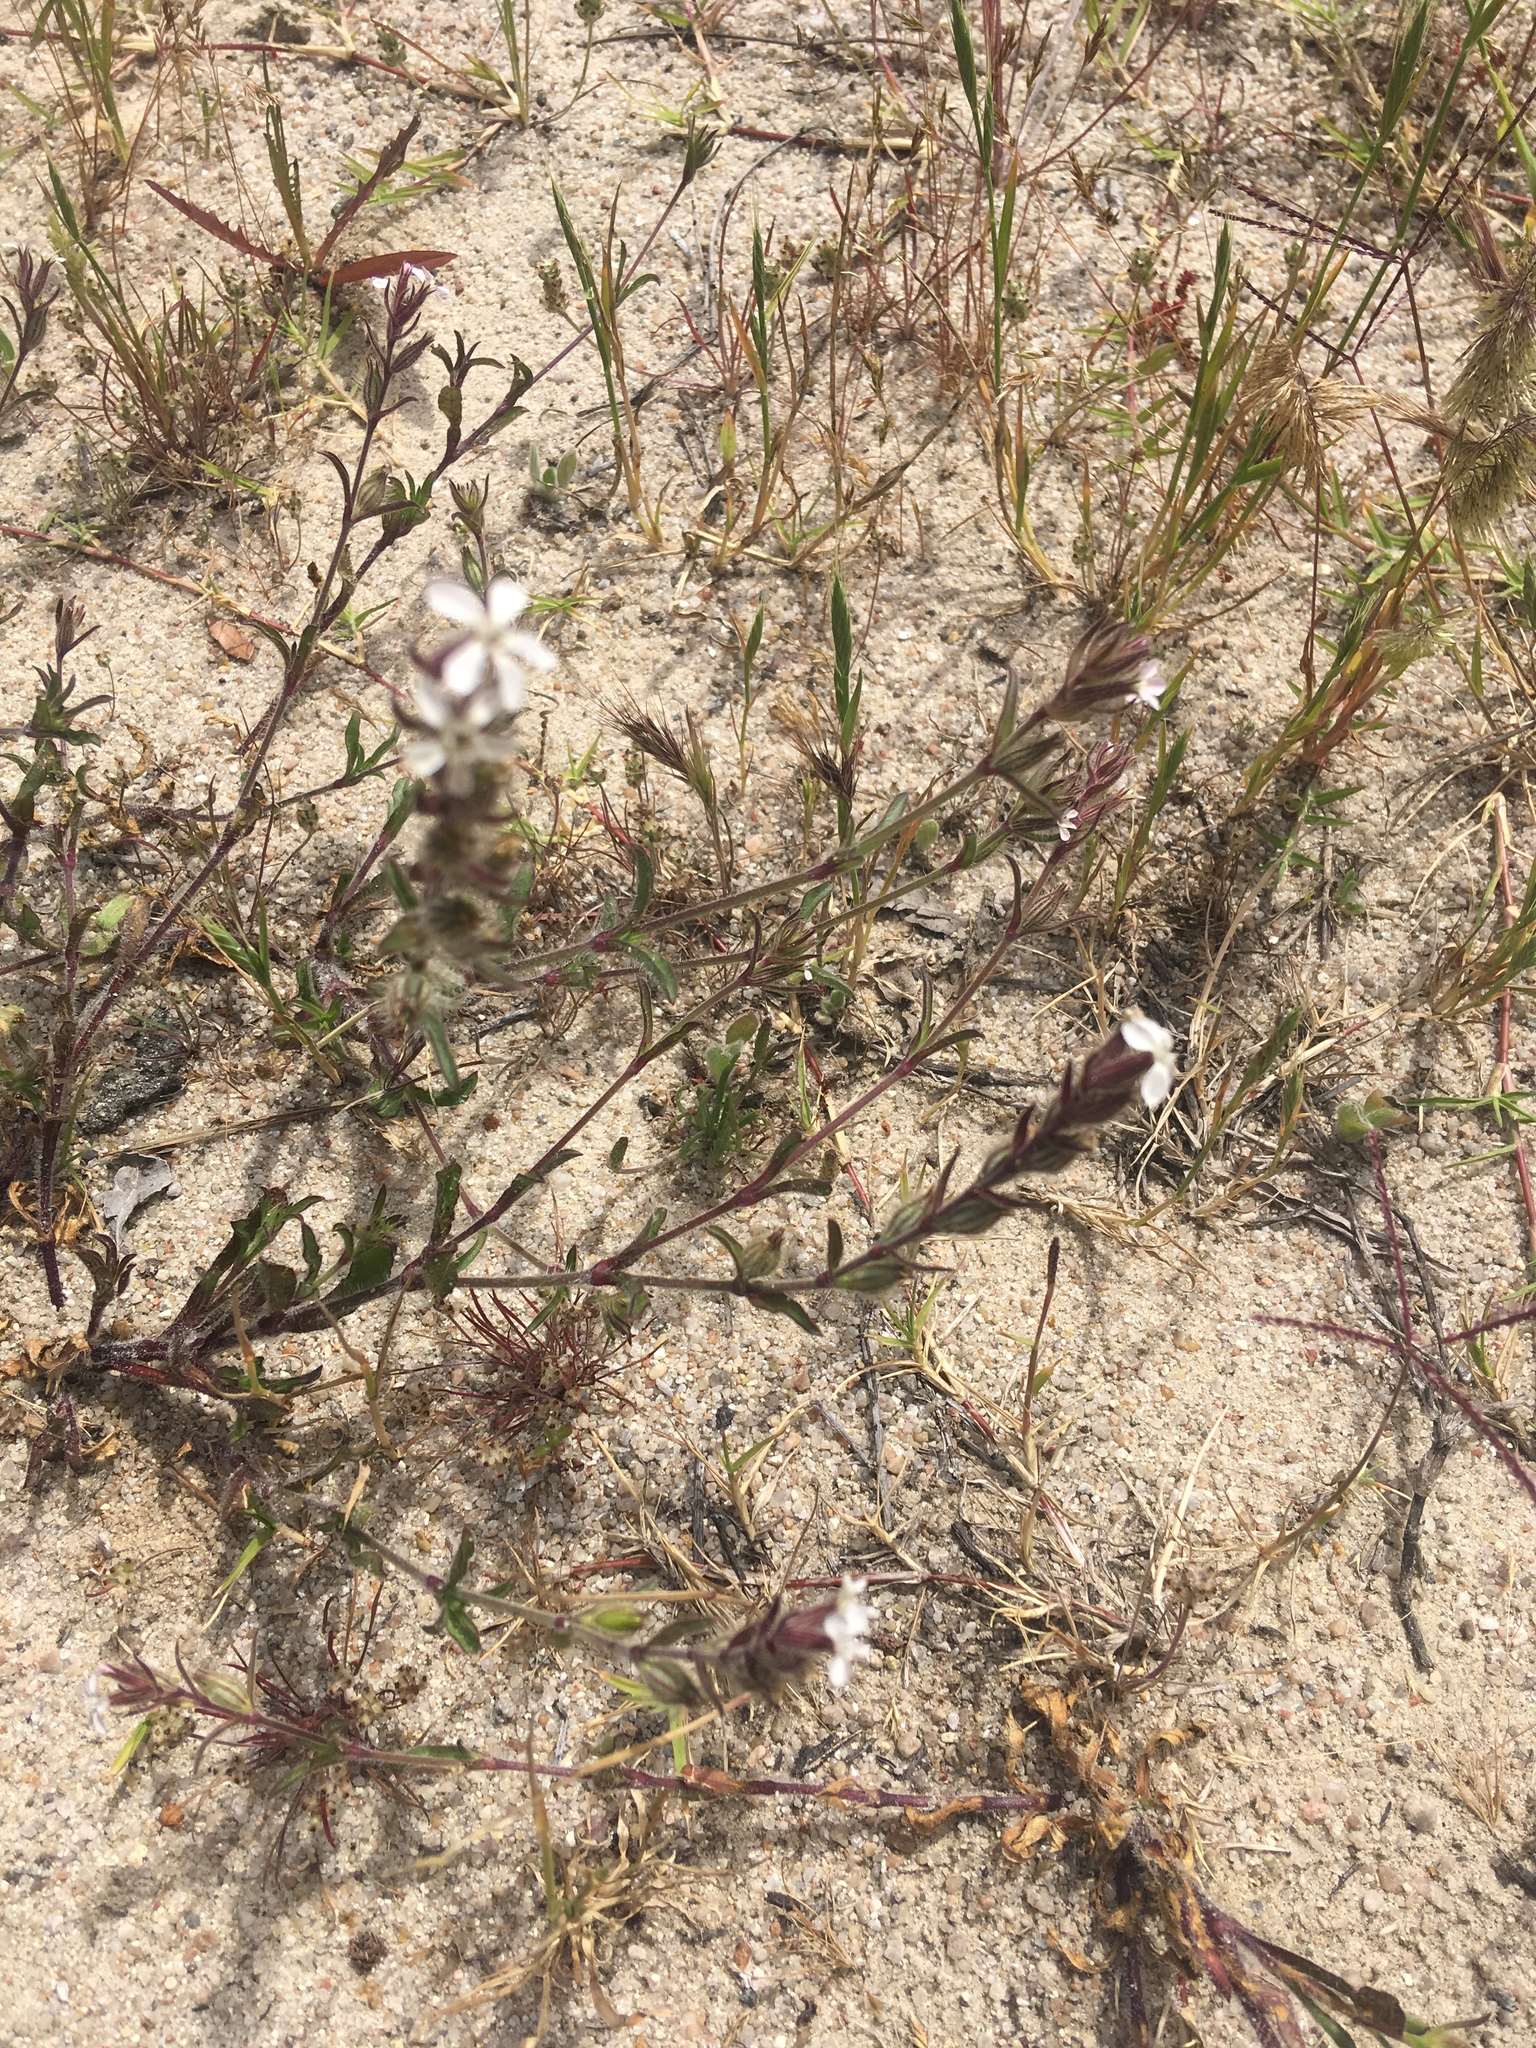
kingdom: Plantae
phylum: Tracheophyta
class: Magnoliopsida
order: Caryophyllales
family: Caryophyllaceae
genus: Silene
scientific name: Silene gallica
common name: Small-flowered catchfly
